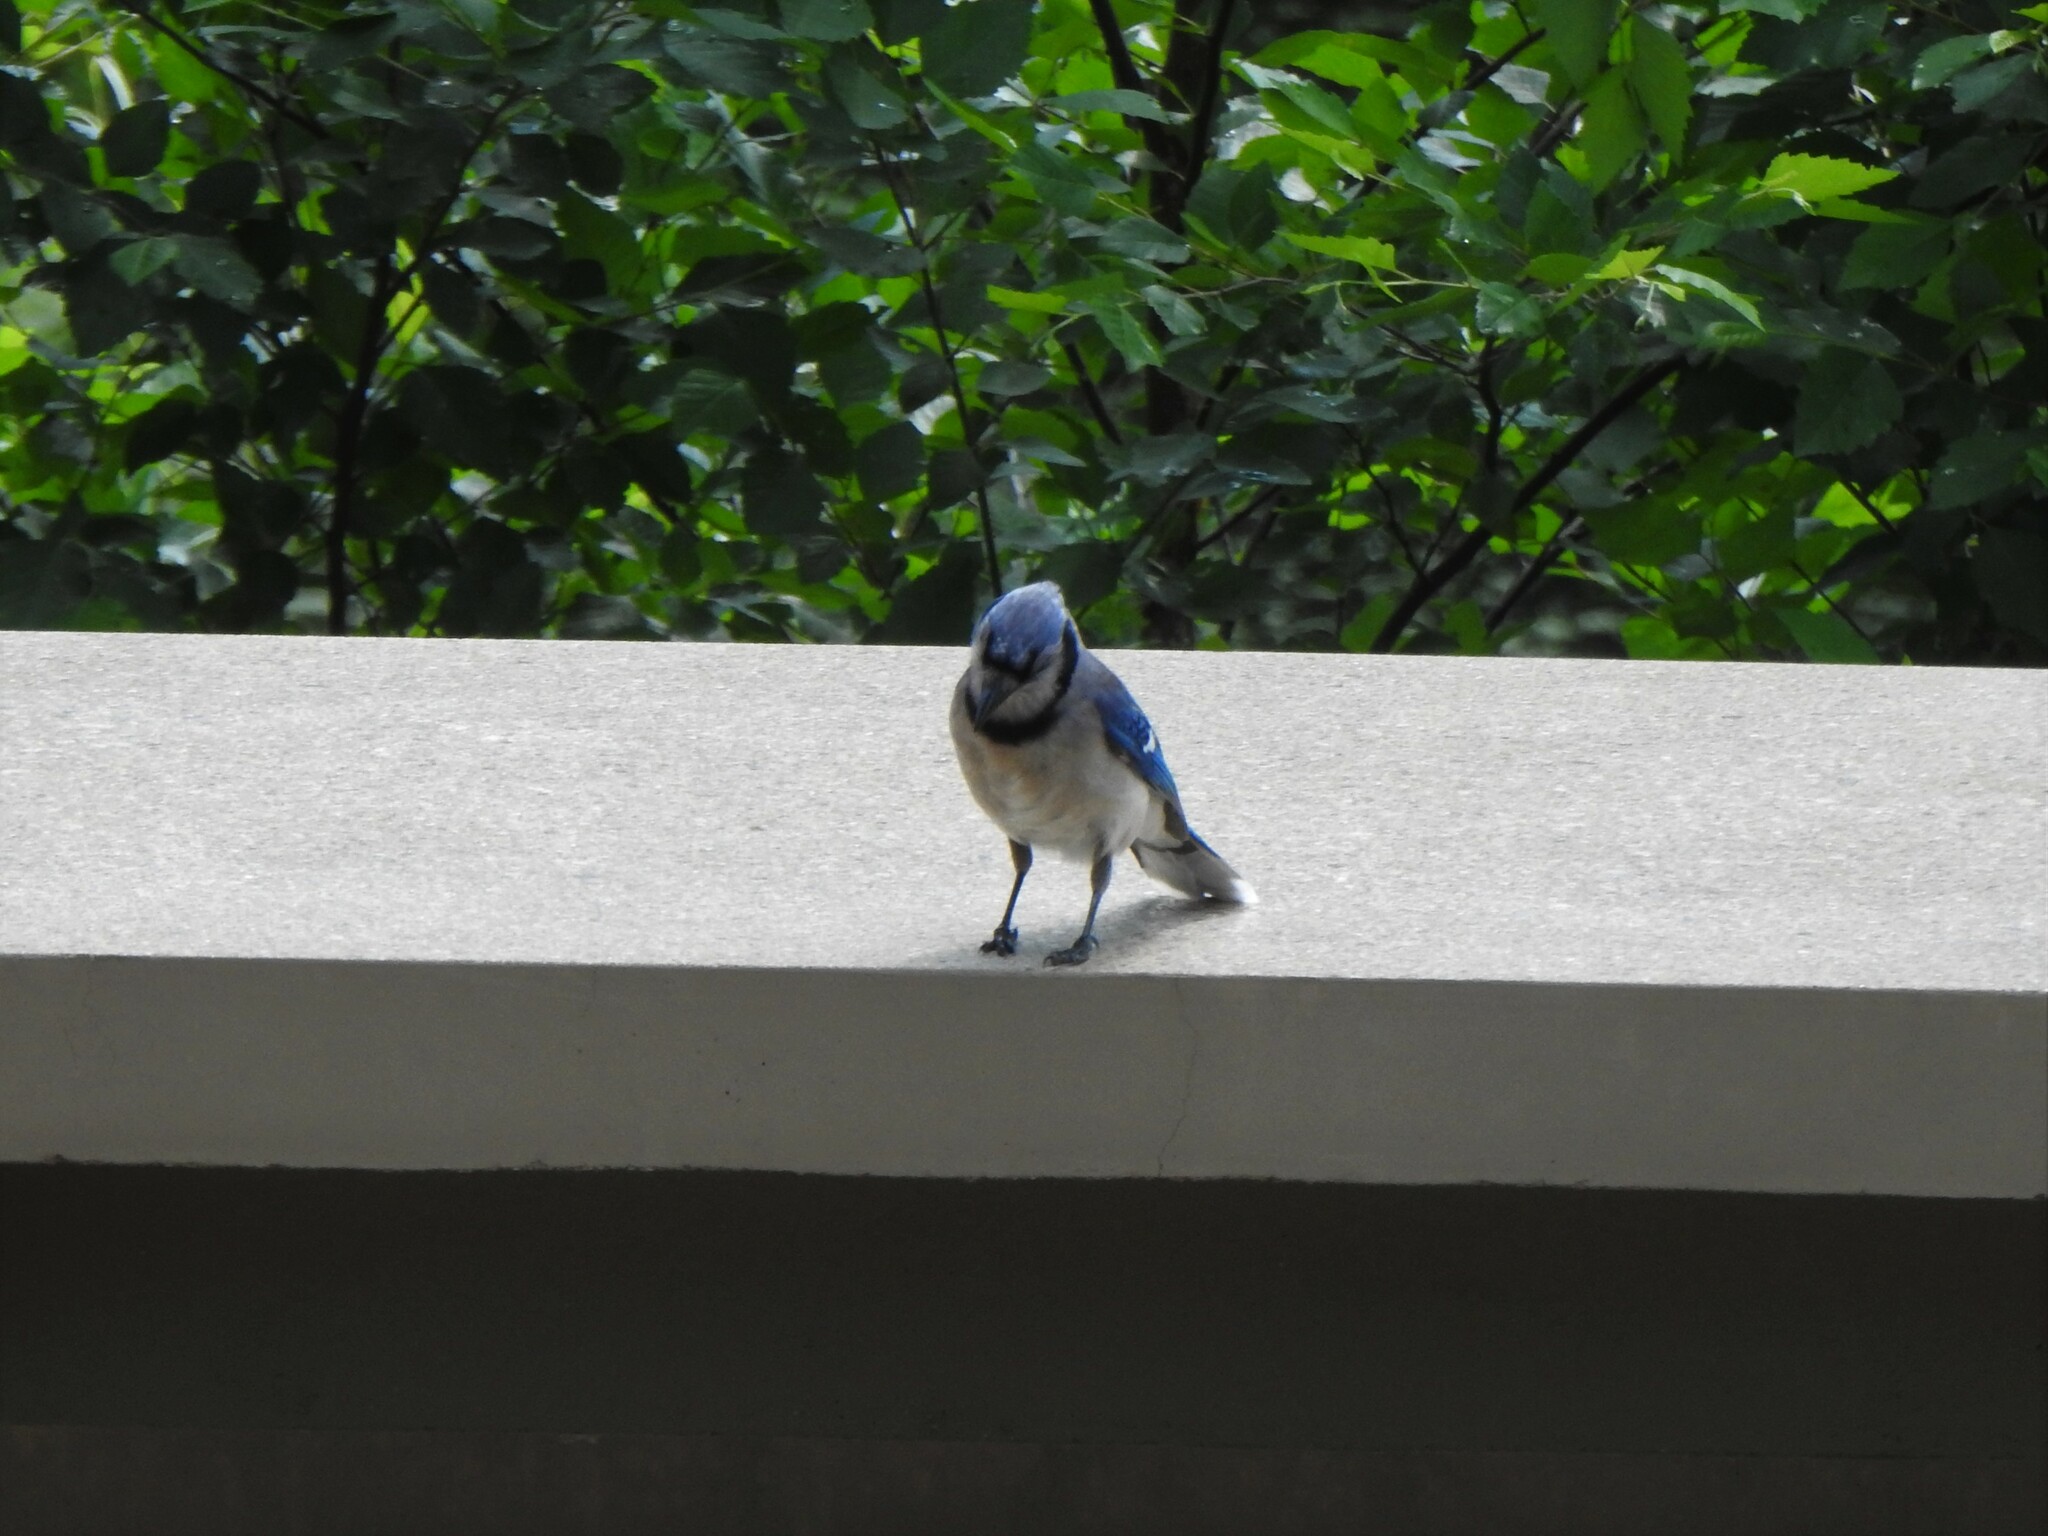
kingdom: Animalia
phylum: Chordata
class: Aves
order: Passeriformes
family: Corvidae
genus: Cyanocitta
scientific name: Cyanocitta cristata
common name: Blue jay
